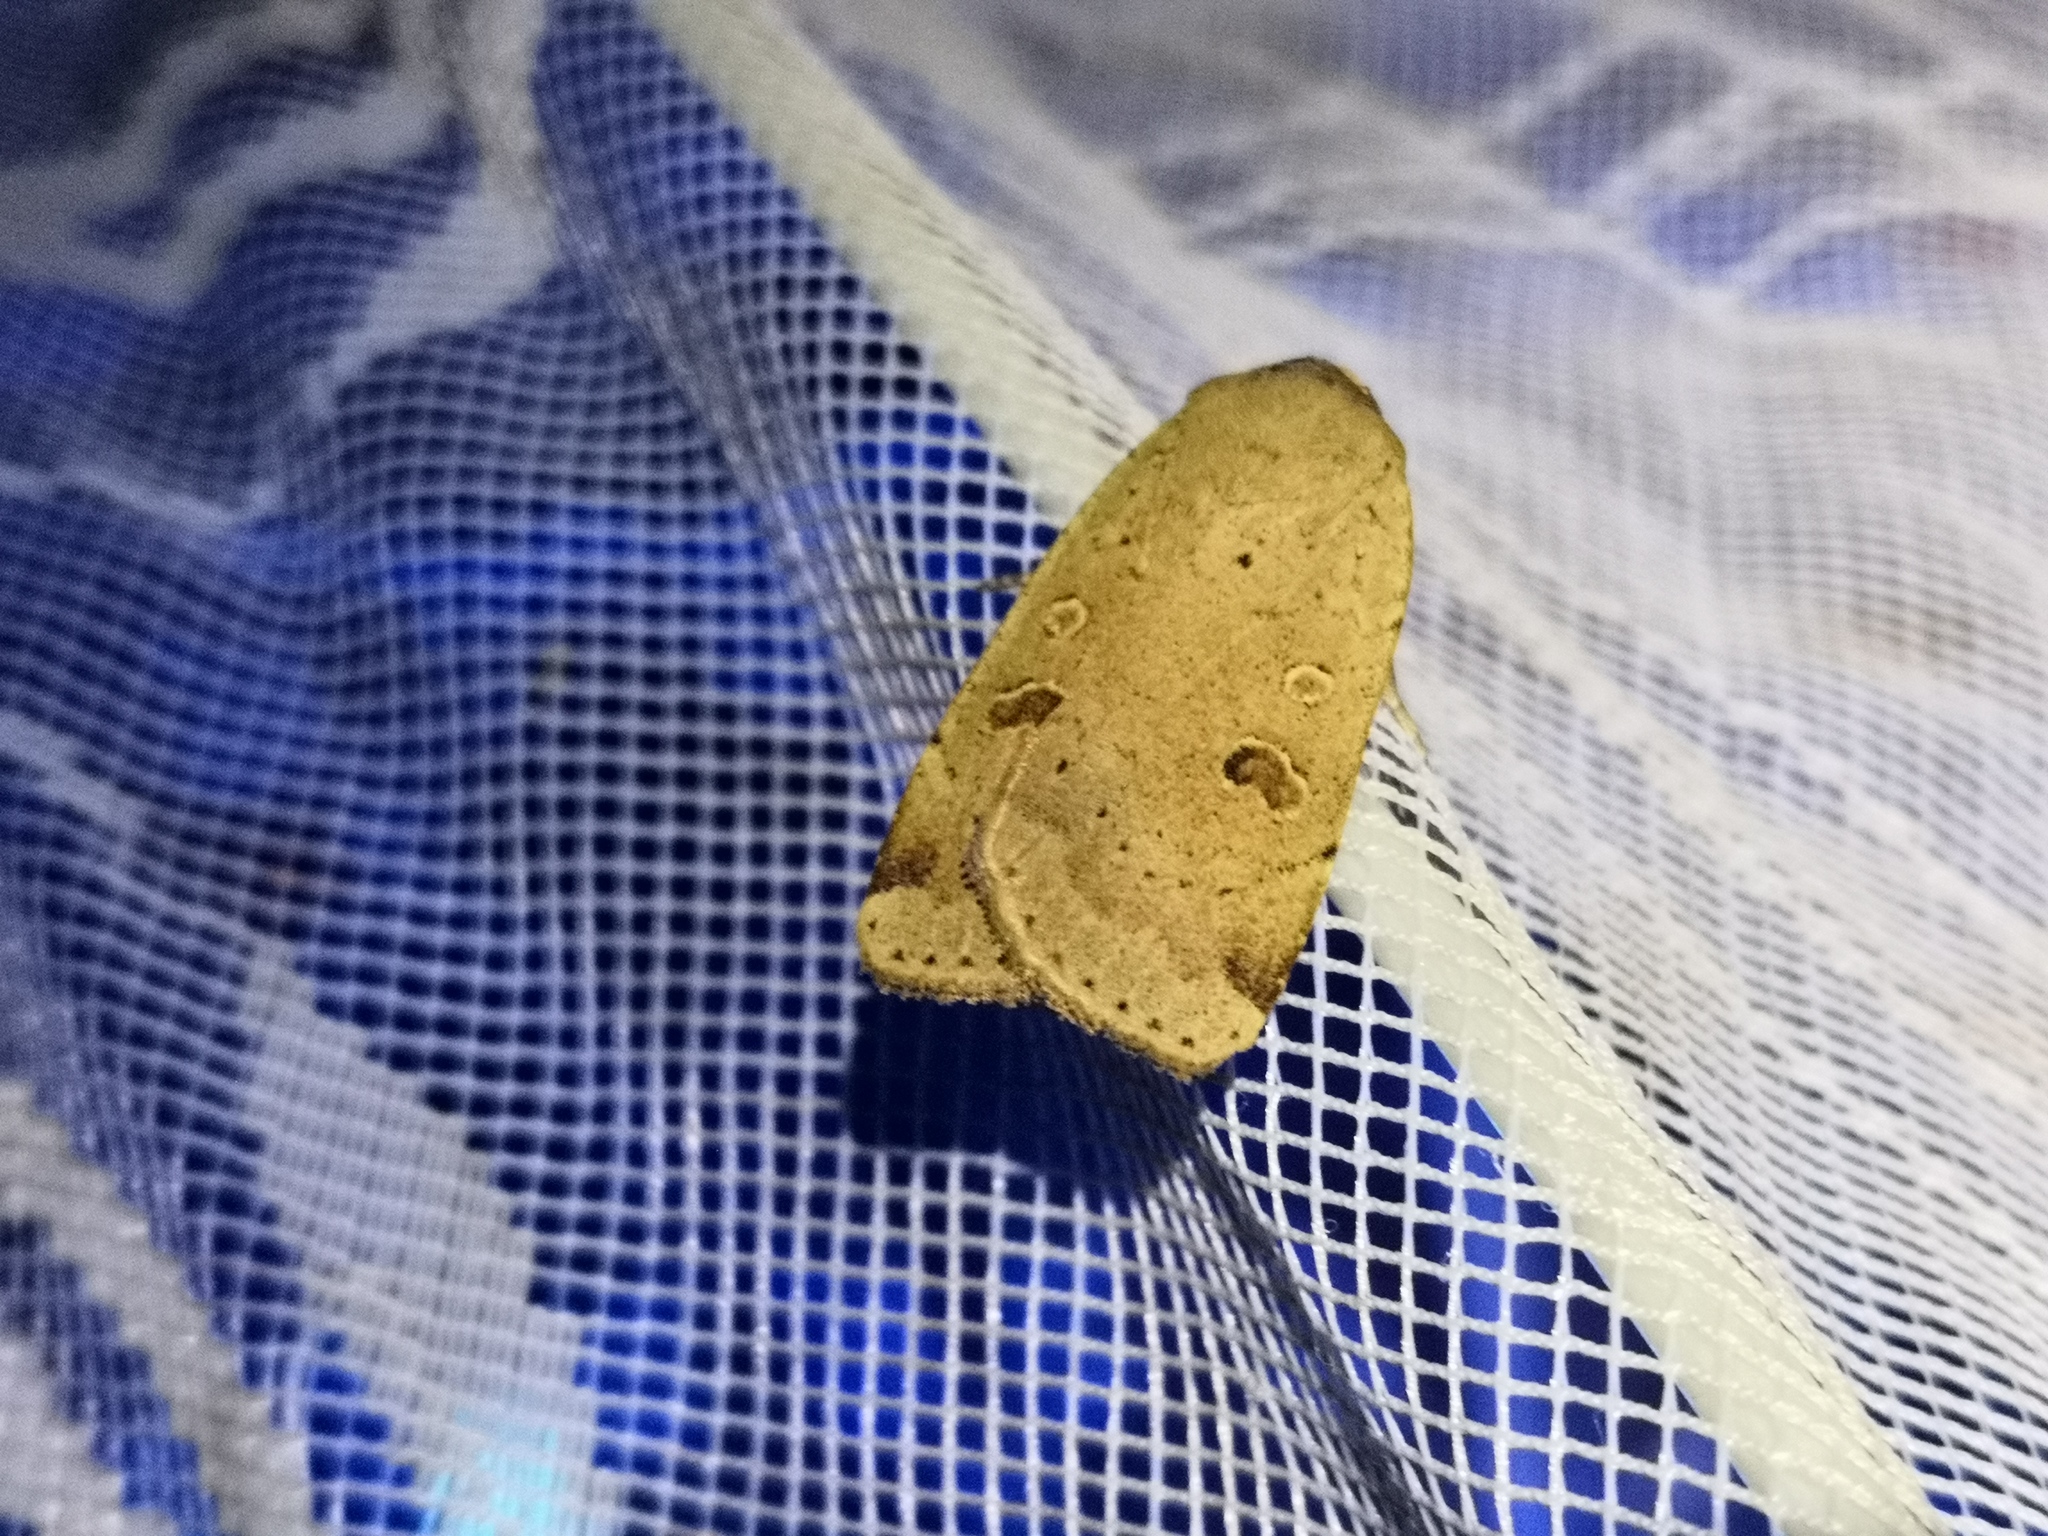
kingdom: Animalia
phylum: Arthropoda
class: Insecta
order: Lepidoptera
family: Noctuidae
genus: Noctua
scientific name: Noctua comes
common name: Lesser yellow underwing
